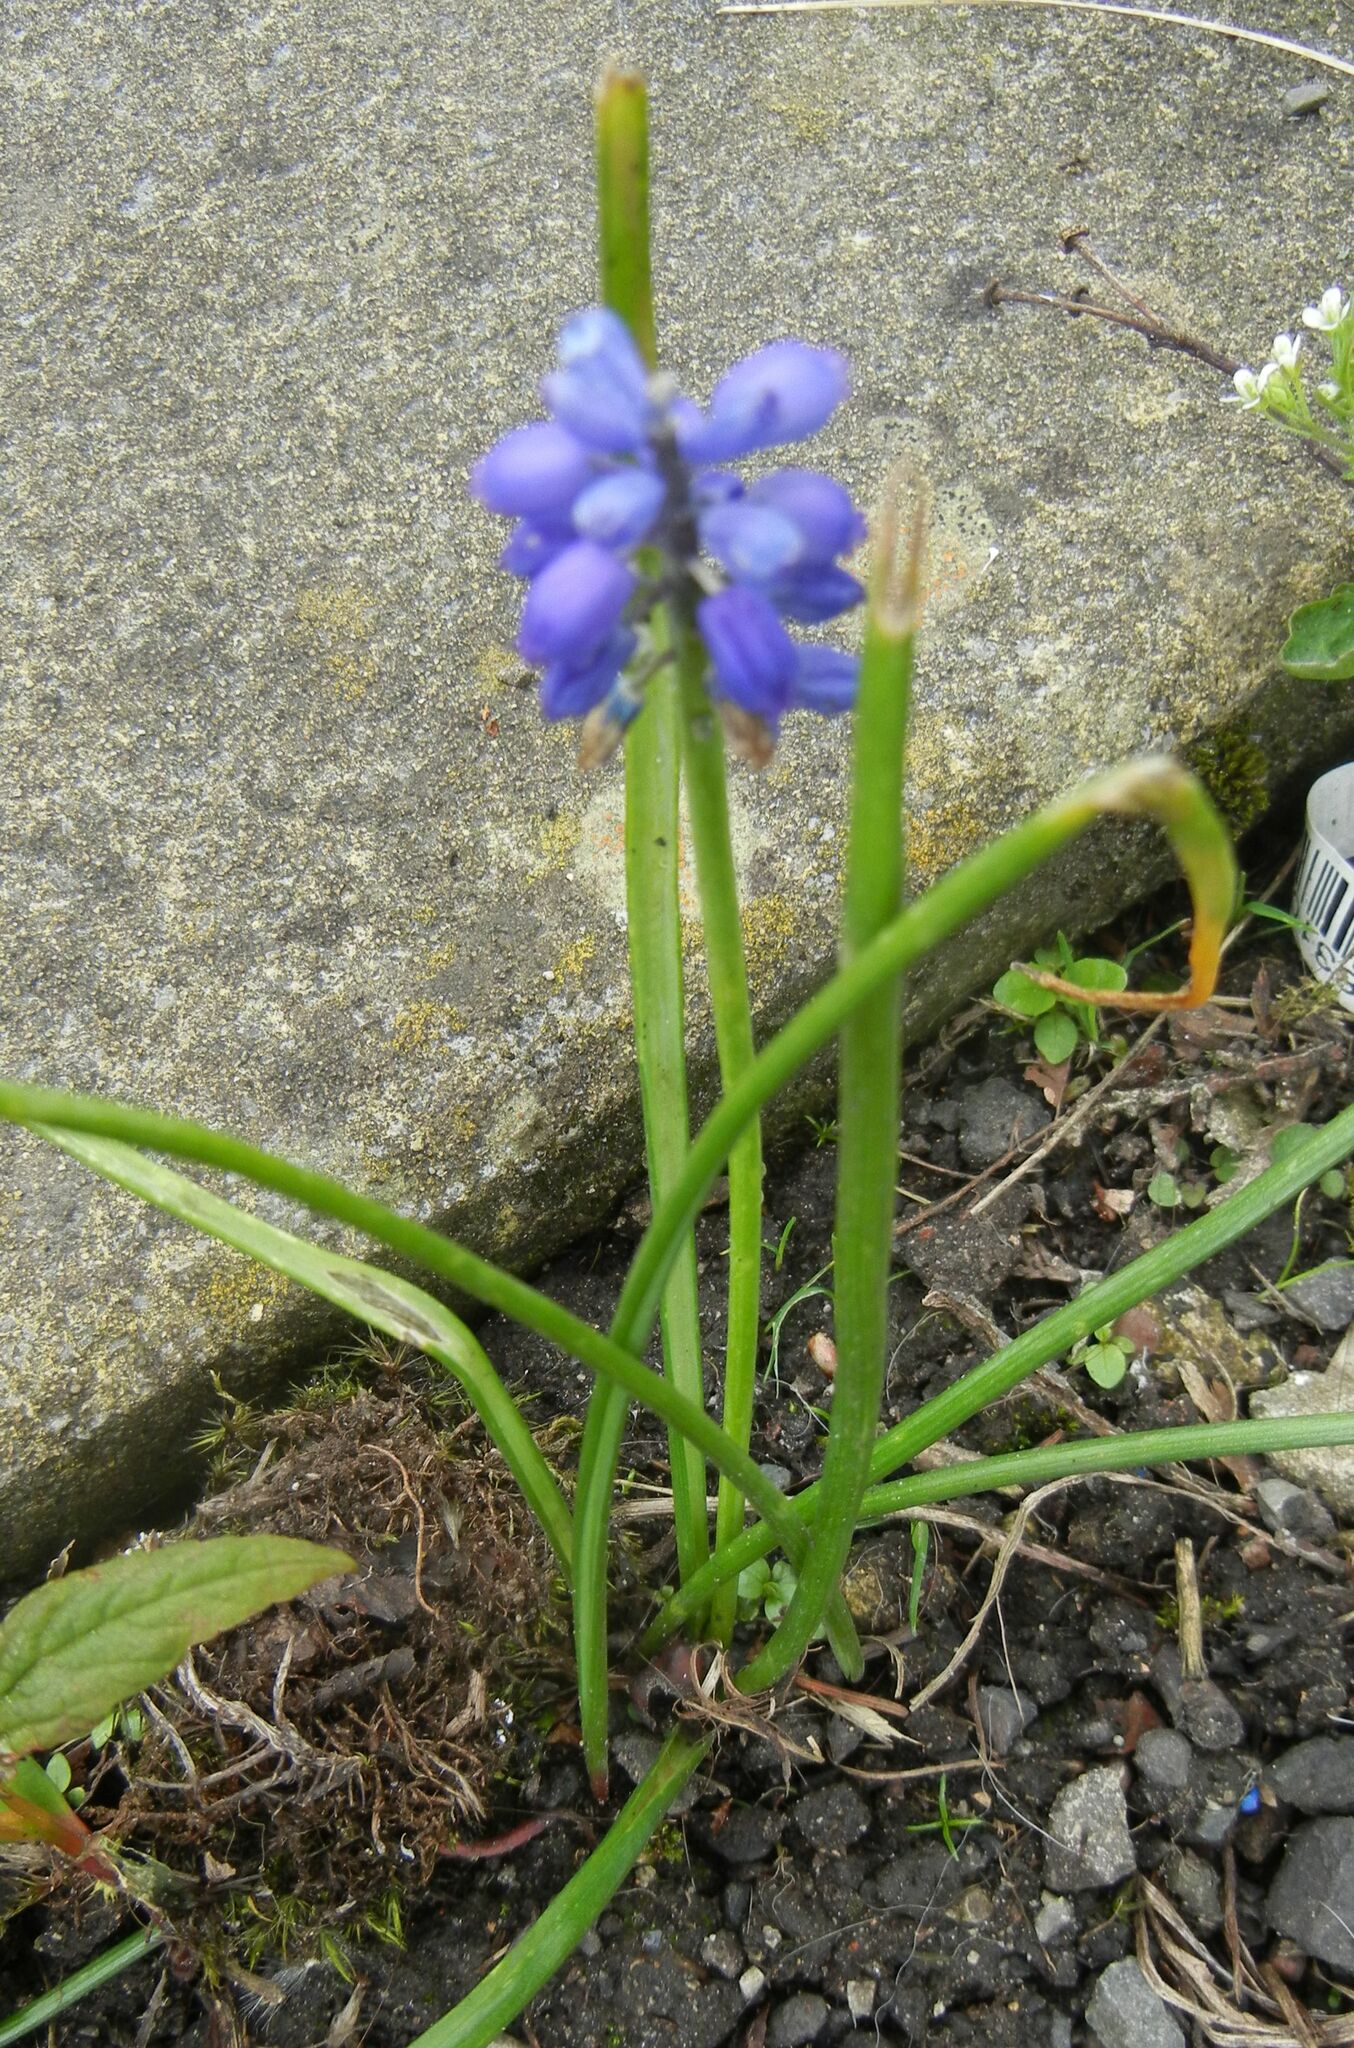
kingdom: Plantae
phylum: Tracheophyta
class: Liliopsida
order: Asparagales
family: Asparagaceae
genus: Muscari
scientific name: Muscari armeniacum
